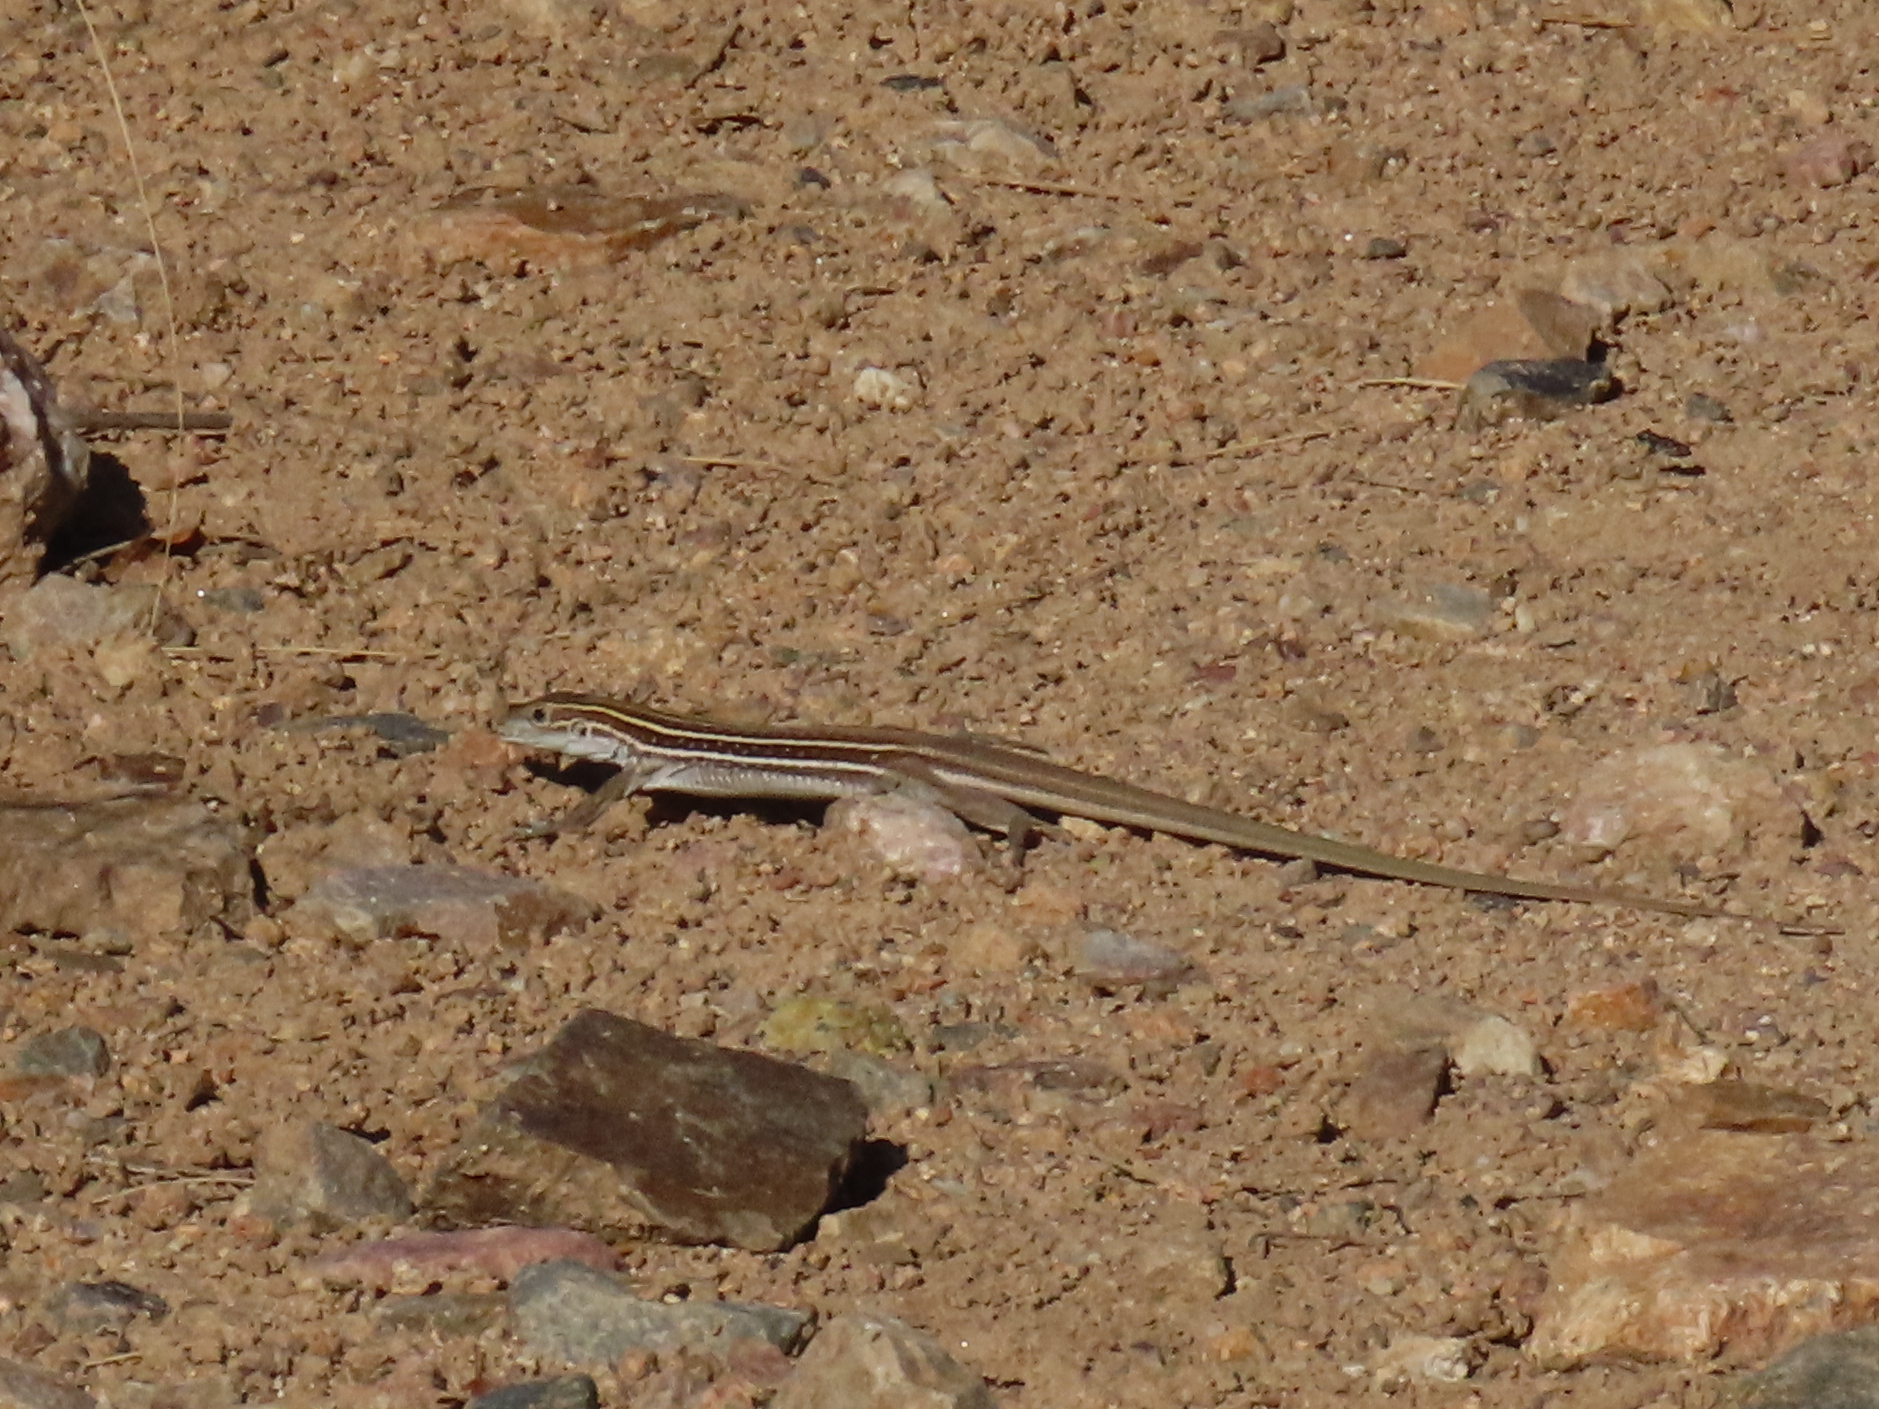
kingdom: Animalia
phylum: Chordata
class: Squamata
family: Teiidae
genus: Aspidoscelis
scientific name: Aspidoscelis sonorae
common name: Sonoran spotted whiptail
